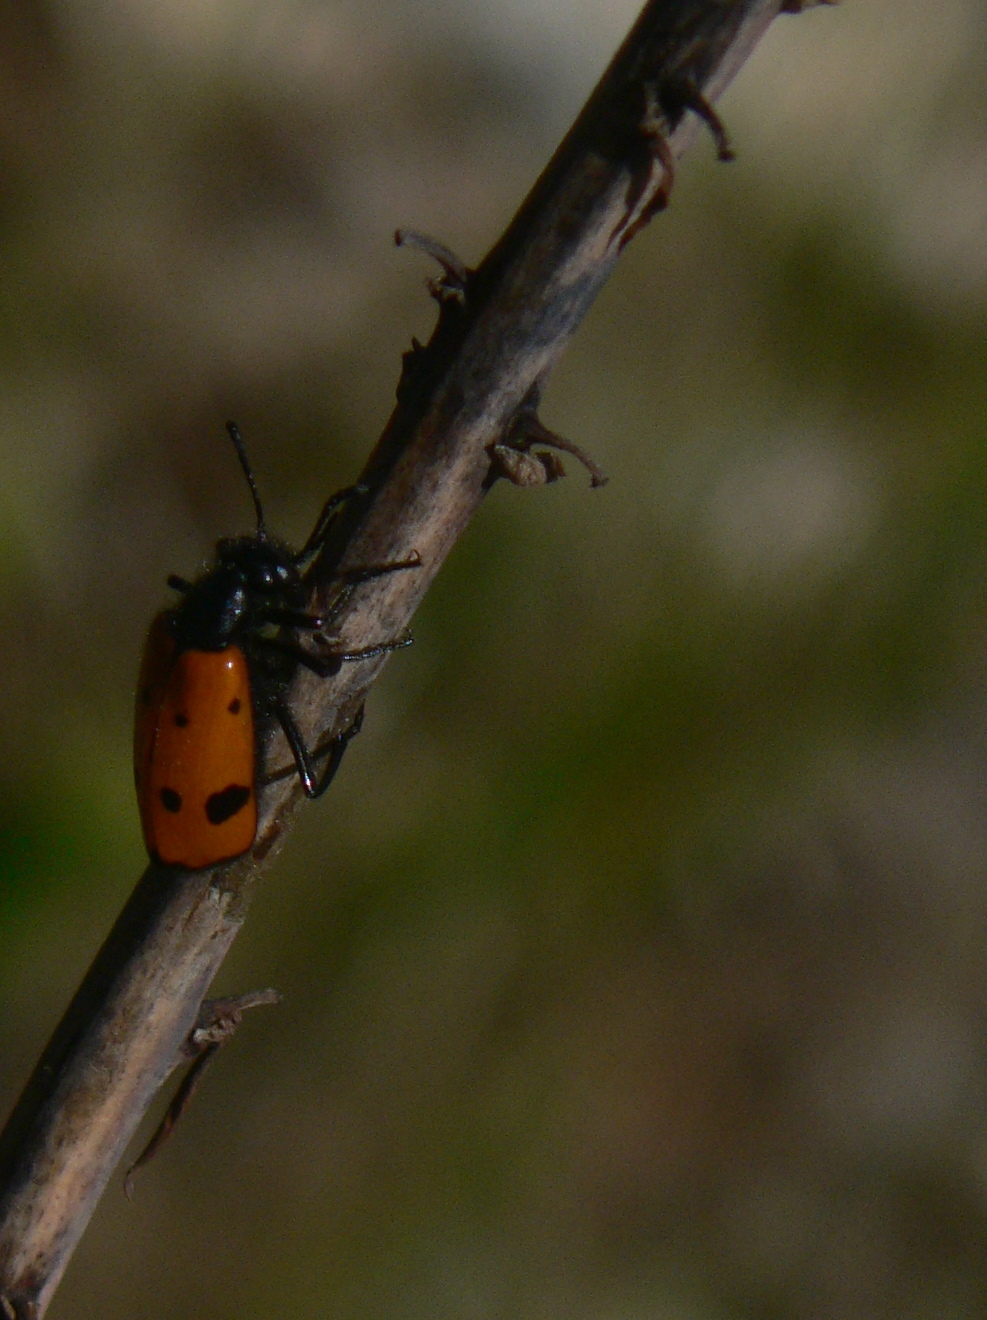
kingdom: Animalia
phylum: Arthropoda
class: Insecta
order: Coleoptera
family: Meloidae
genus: Mylabris
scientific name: Mylabris quadripunctata
